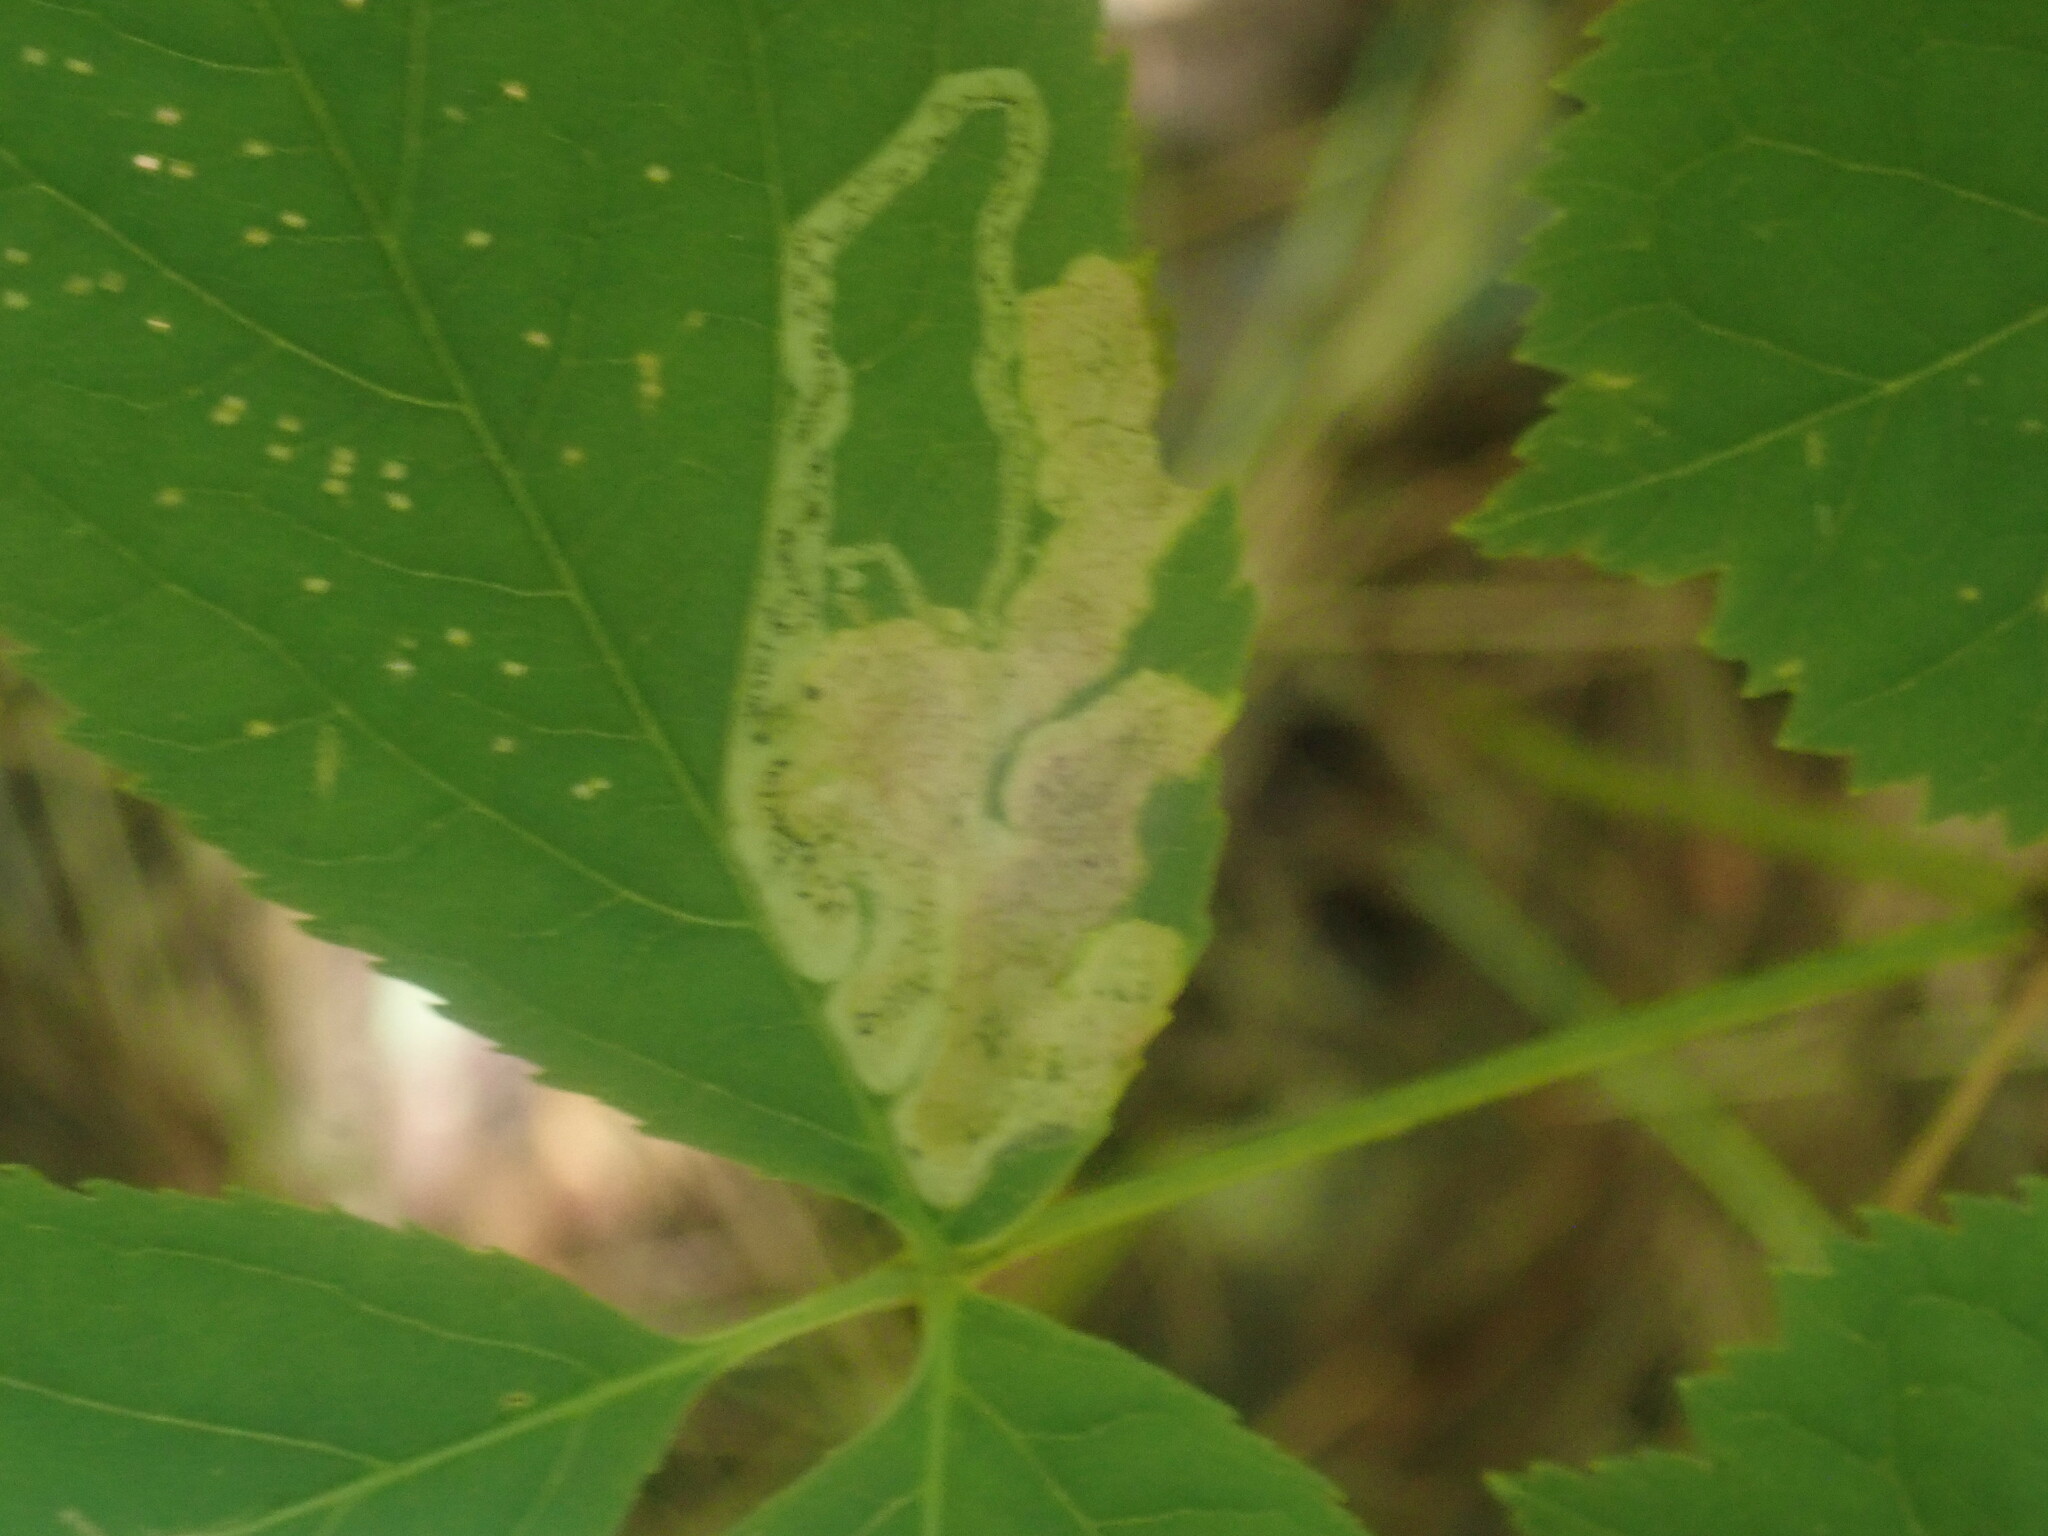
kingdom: Animalia
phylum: Arthropoda
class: Insecta
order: Diptera
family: Agromyzidae
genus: Phytomyza
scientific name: Phytomyza aralivora
